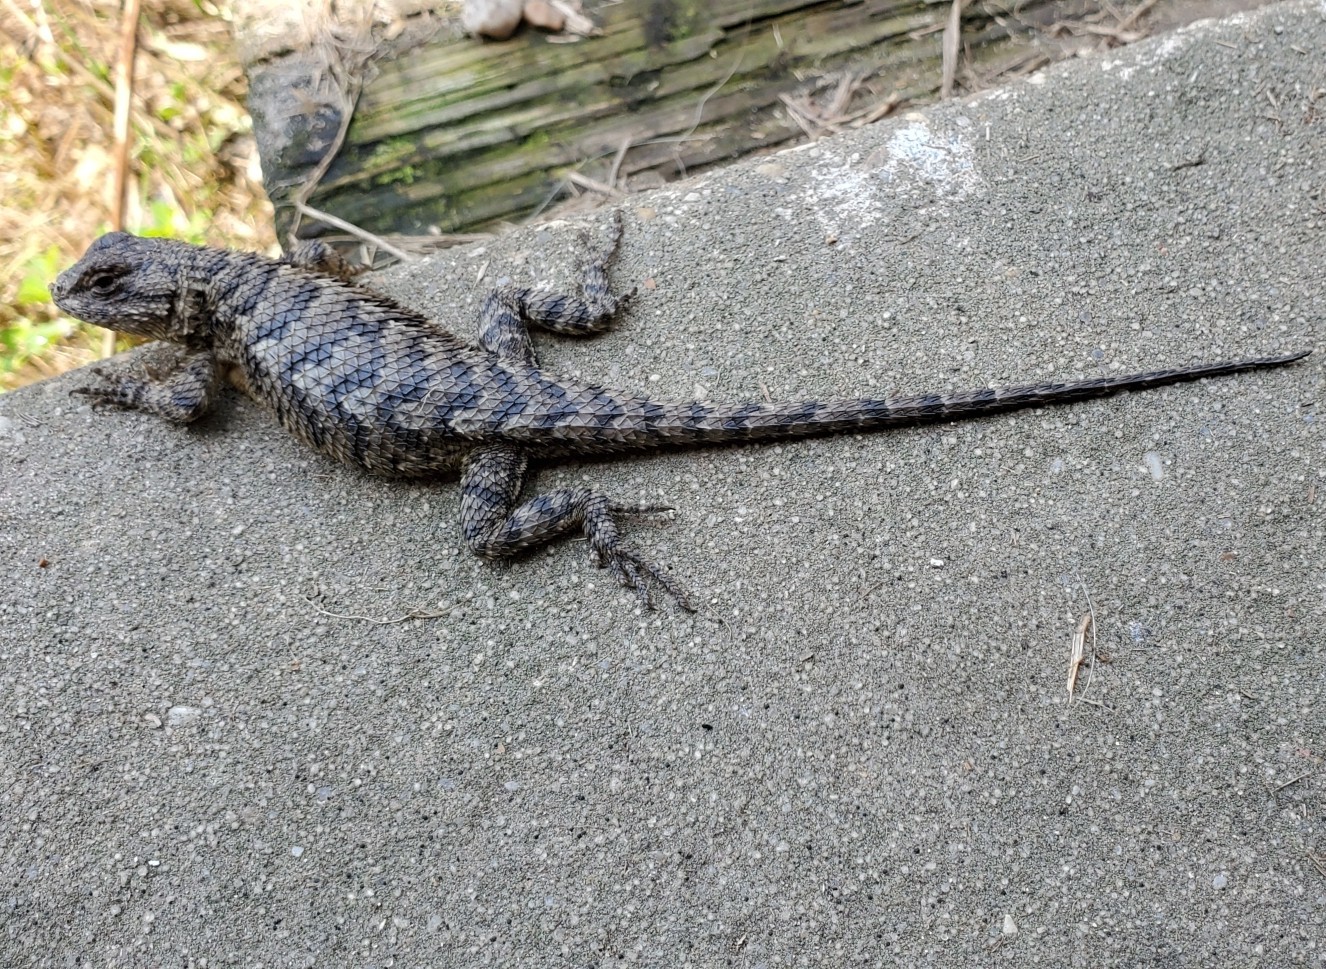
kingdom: Animalia
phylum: Chordata
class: Squamata
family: Phrynosomatidae
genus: Sceloporus
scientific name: Sceloporus undulatus
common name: Eastern fence lizard
